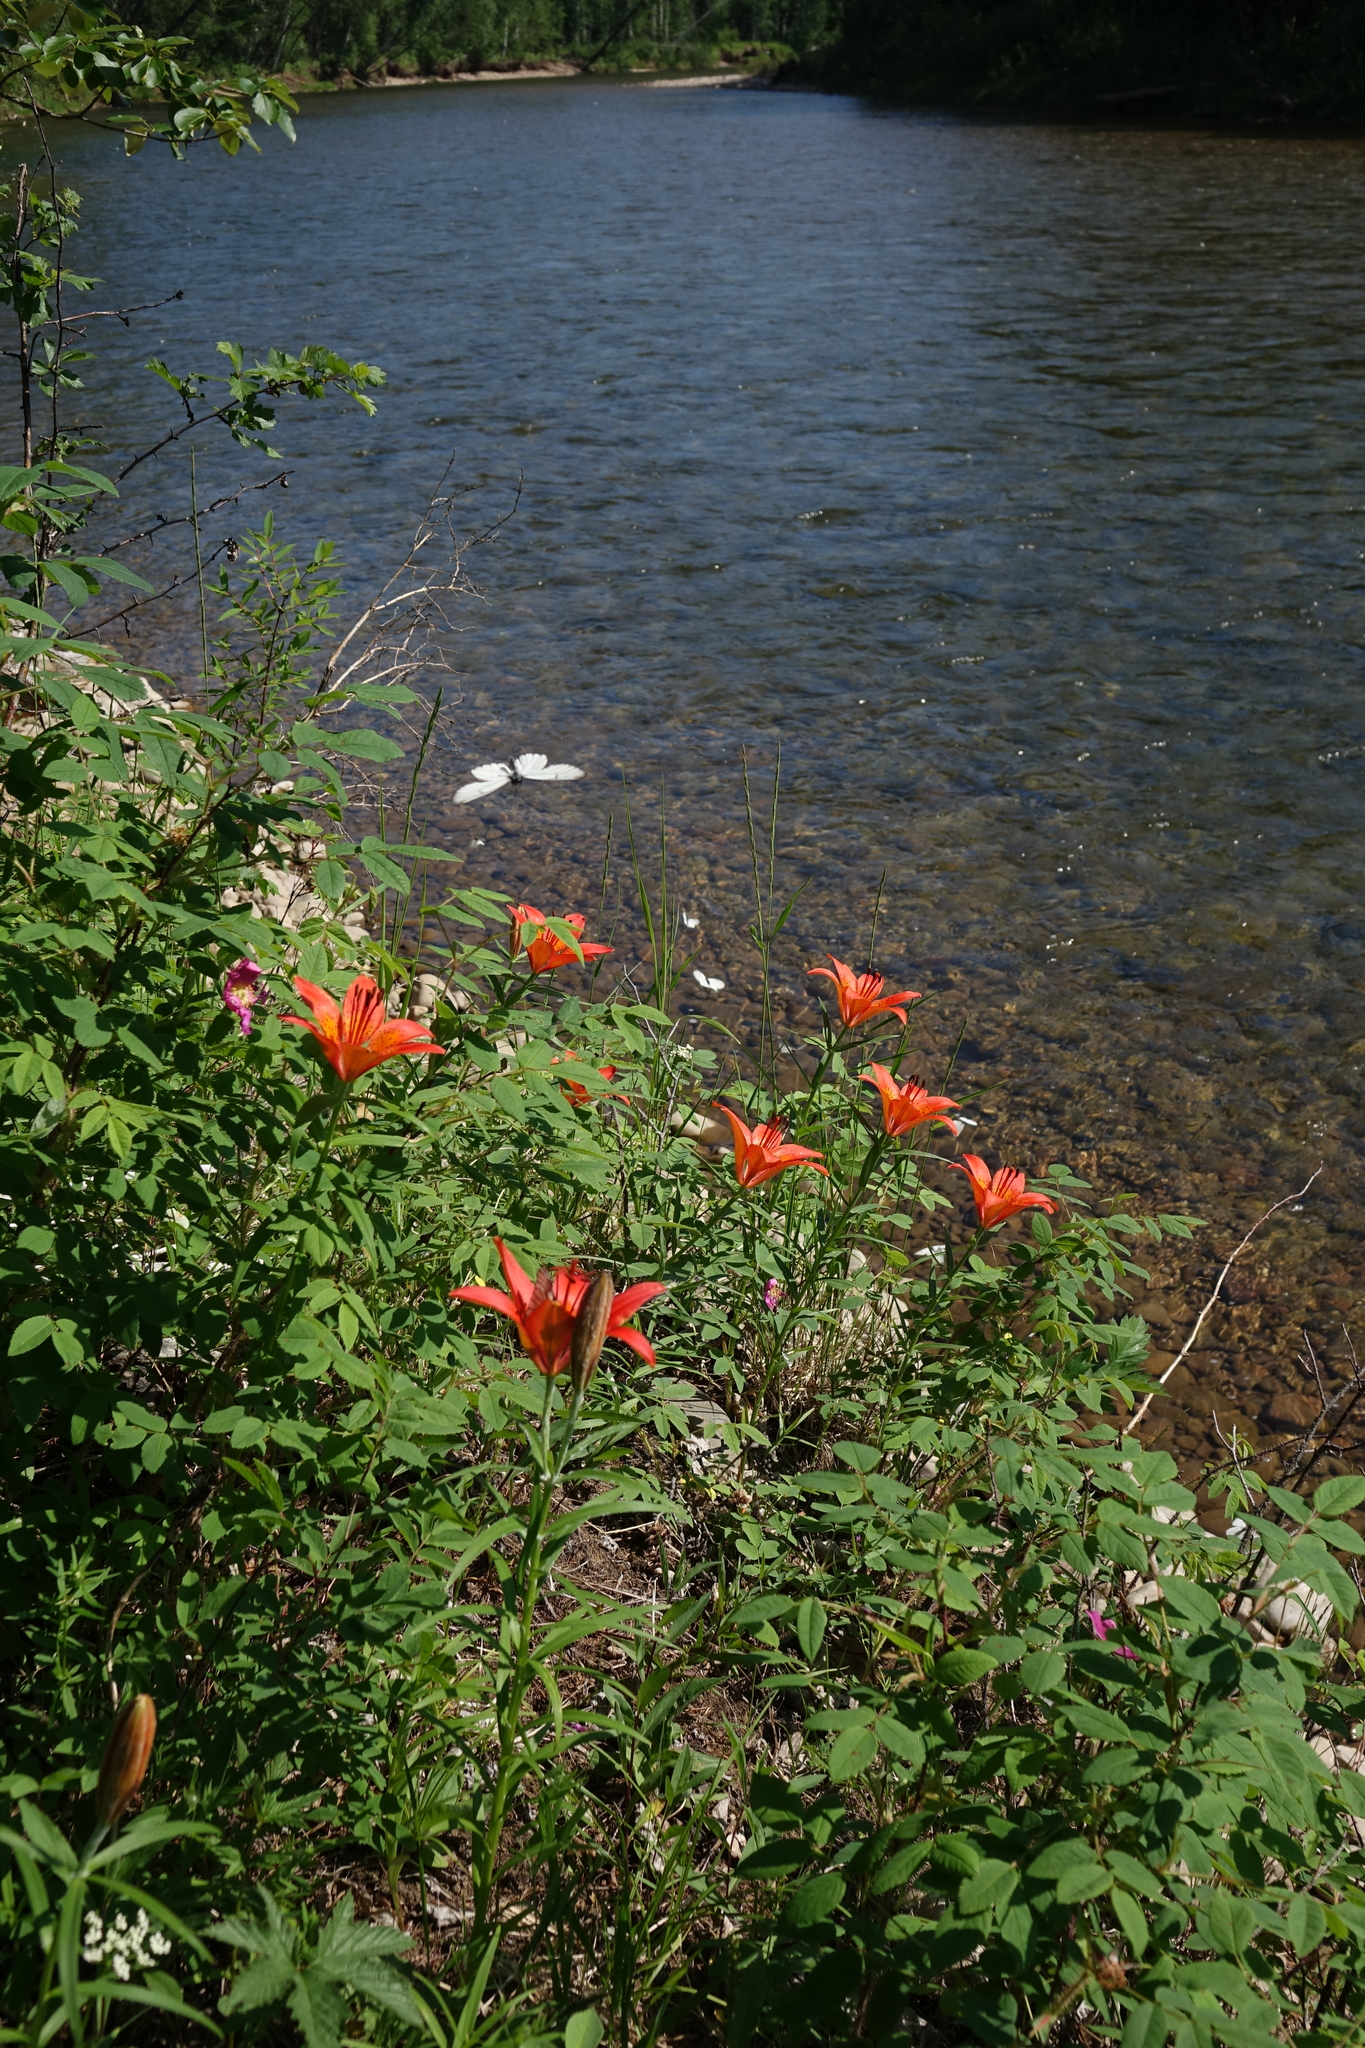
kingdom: Plantae
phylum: Tracheophyta
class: Liliopsida
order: Liliales
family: Liliaceae
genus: Lilium
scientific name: Lilium pensylvanicum
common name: Candlestick lily
